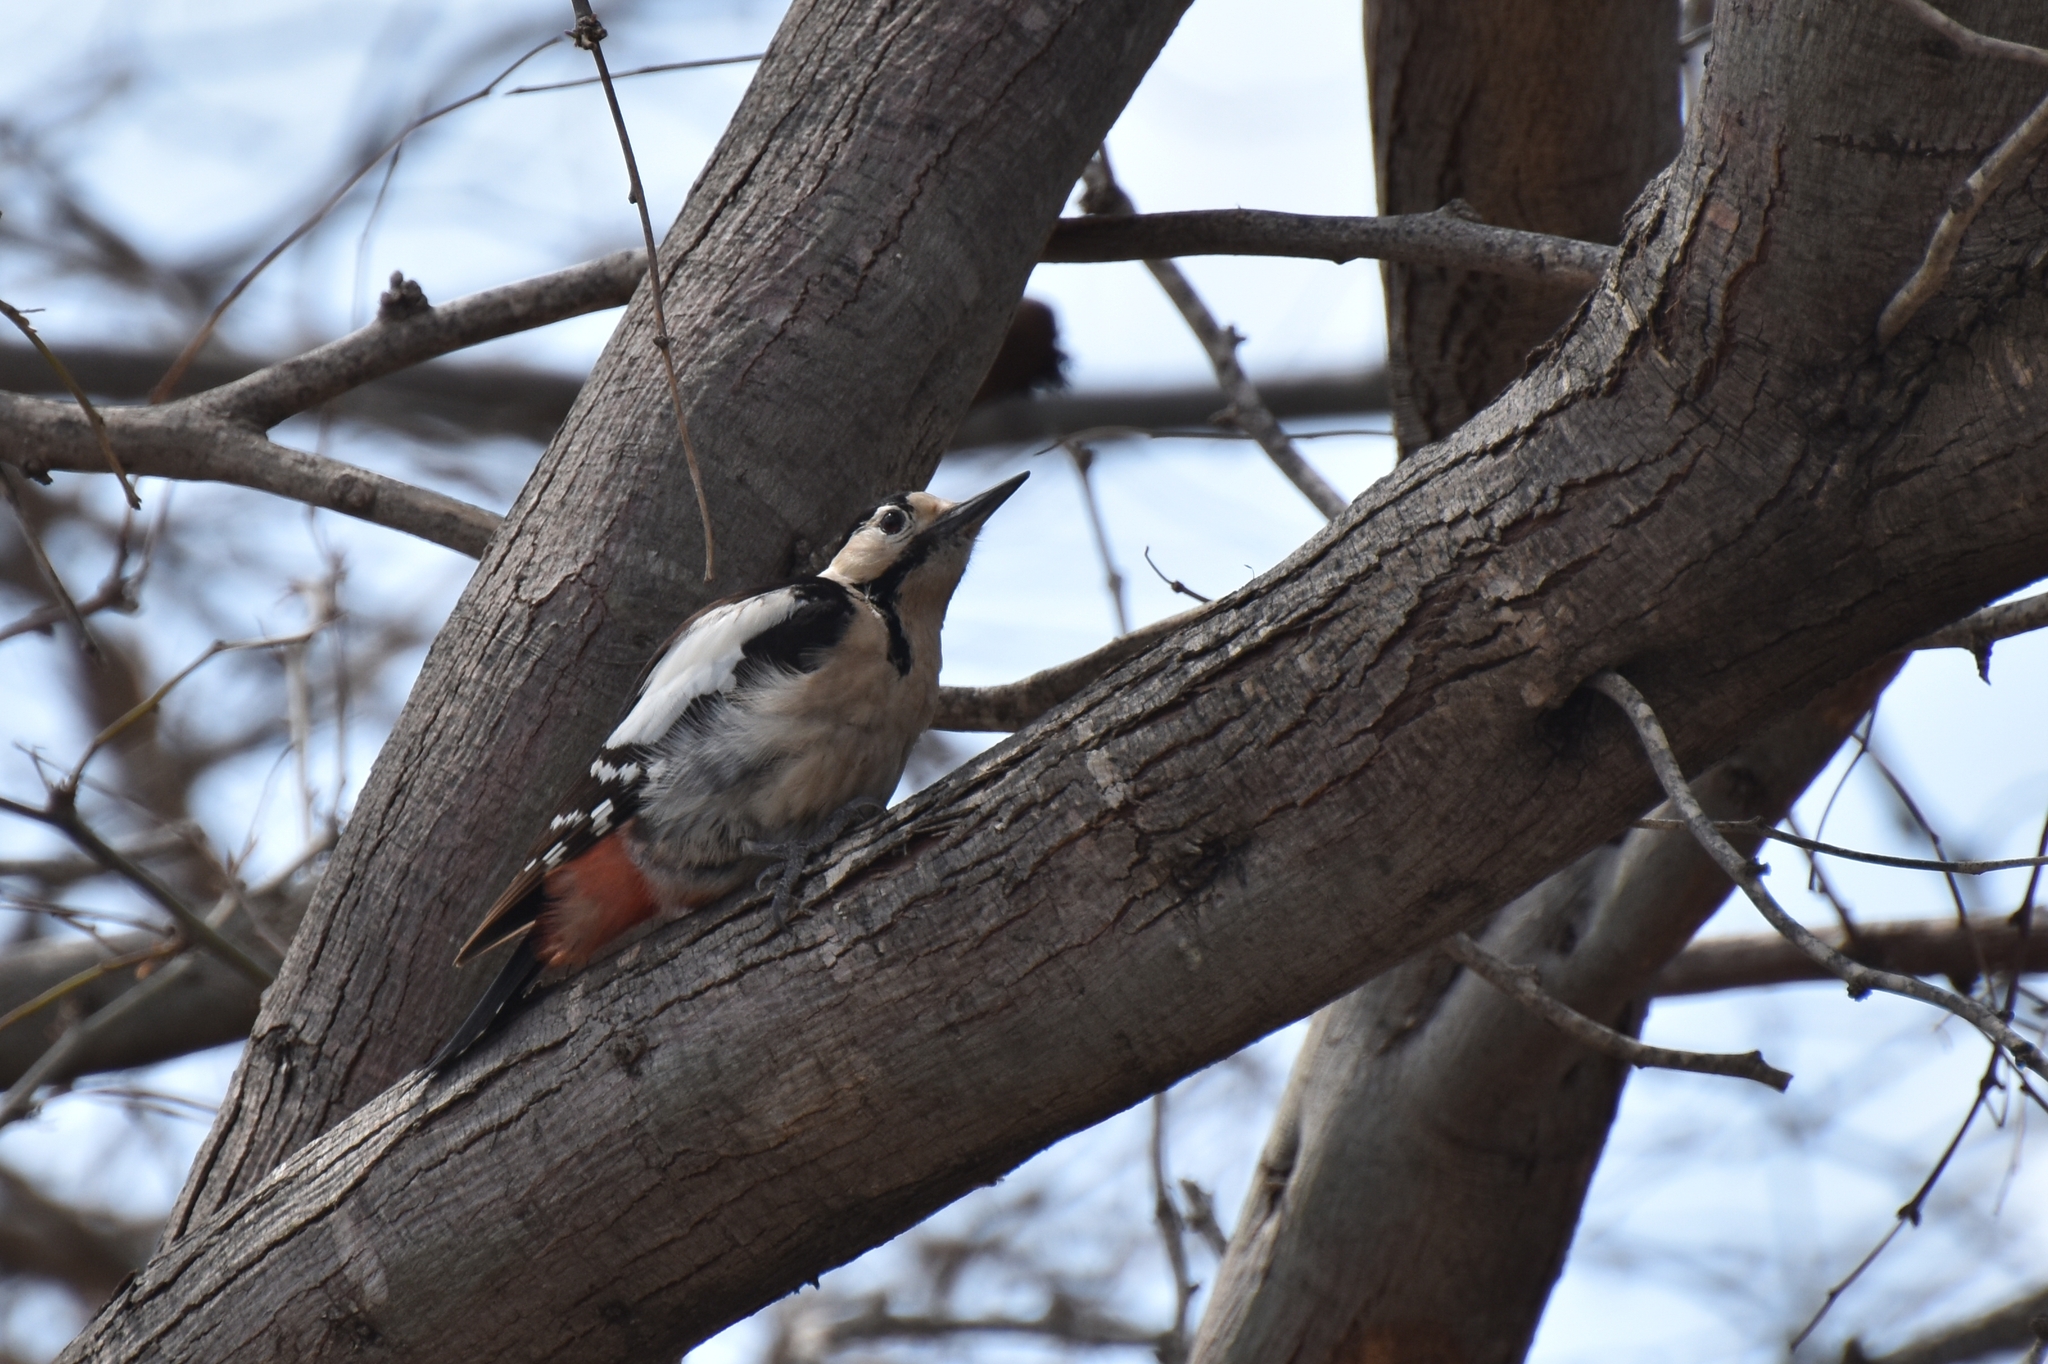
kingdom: Animalia
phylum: Chordata
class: Aves
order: Piciformes
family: Picidae
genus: Dendrocopos
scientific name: Dendrocopos syriacus
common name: Syrian woodpecker
